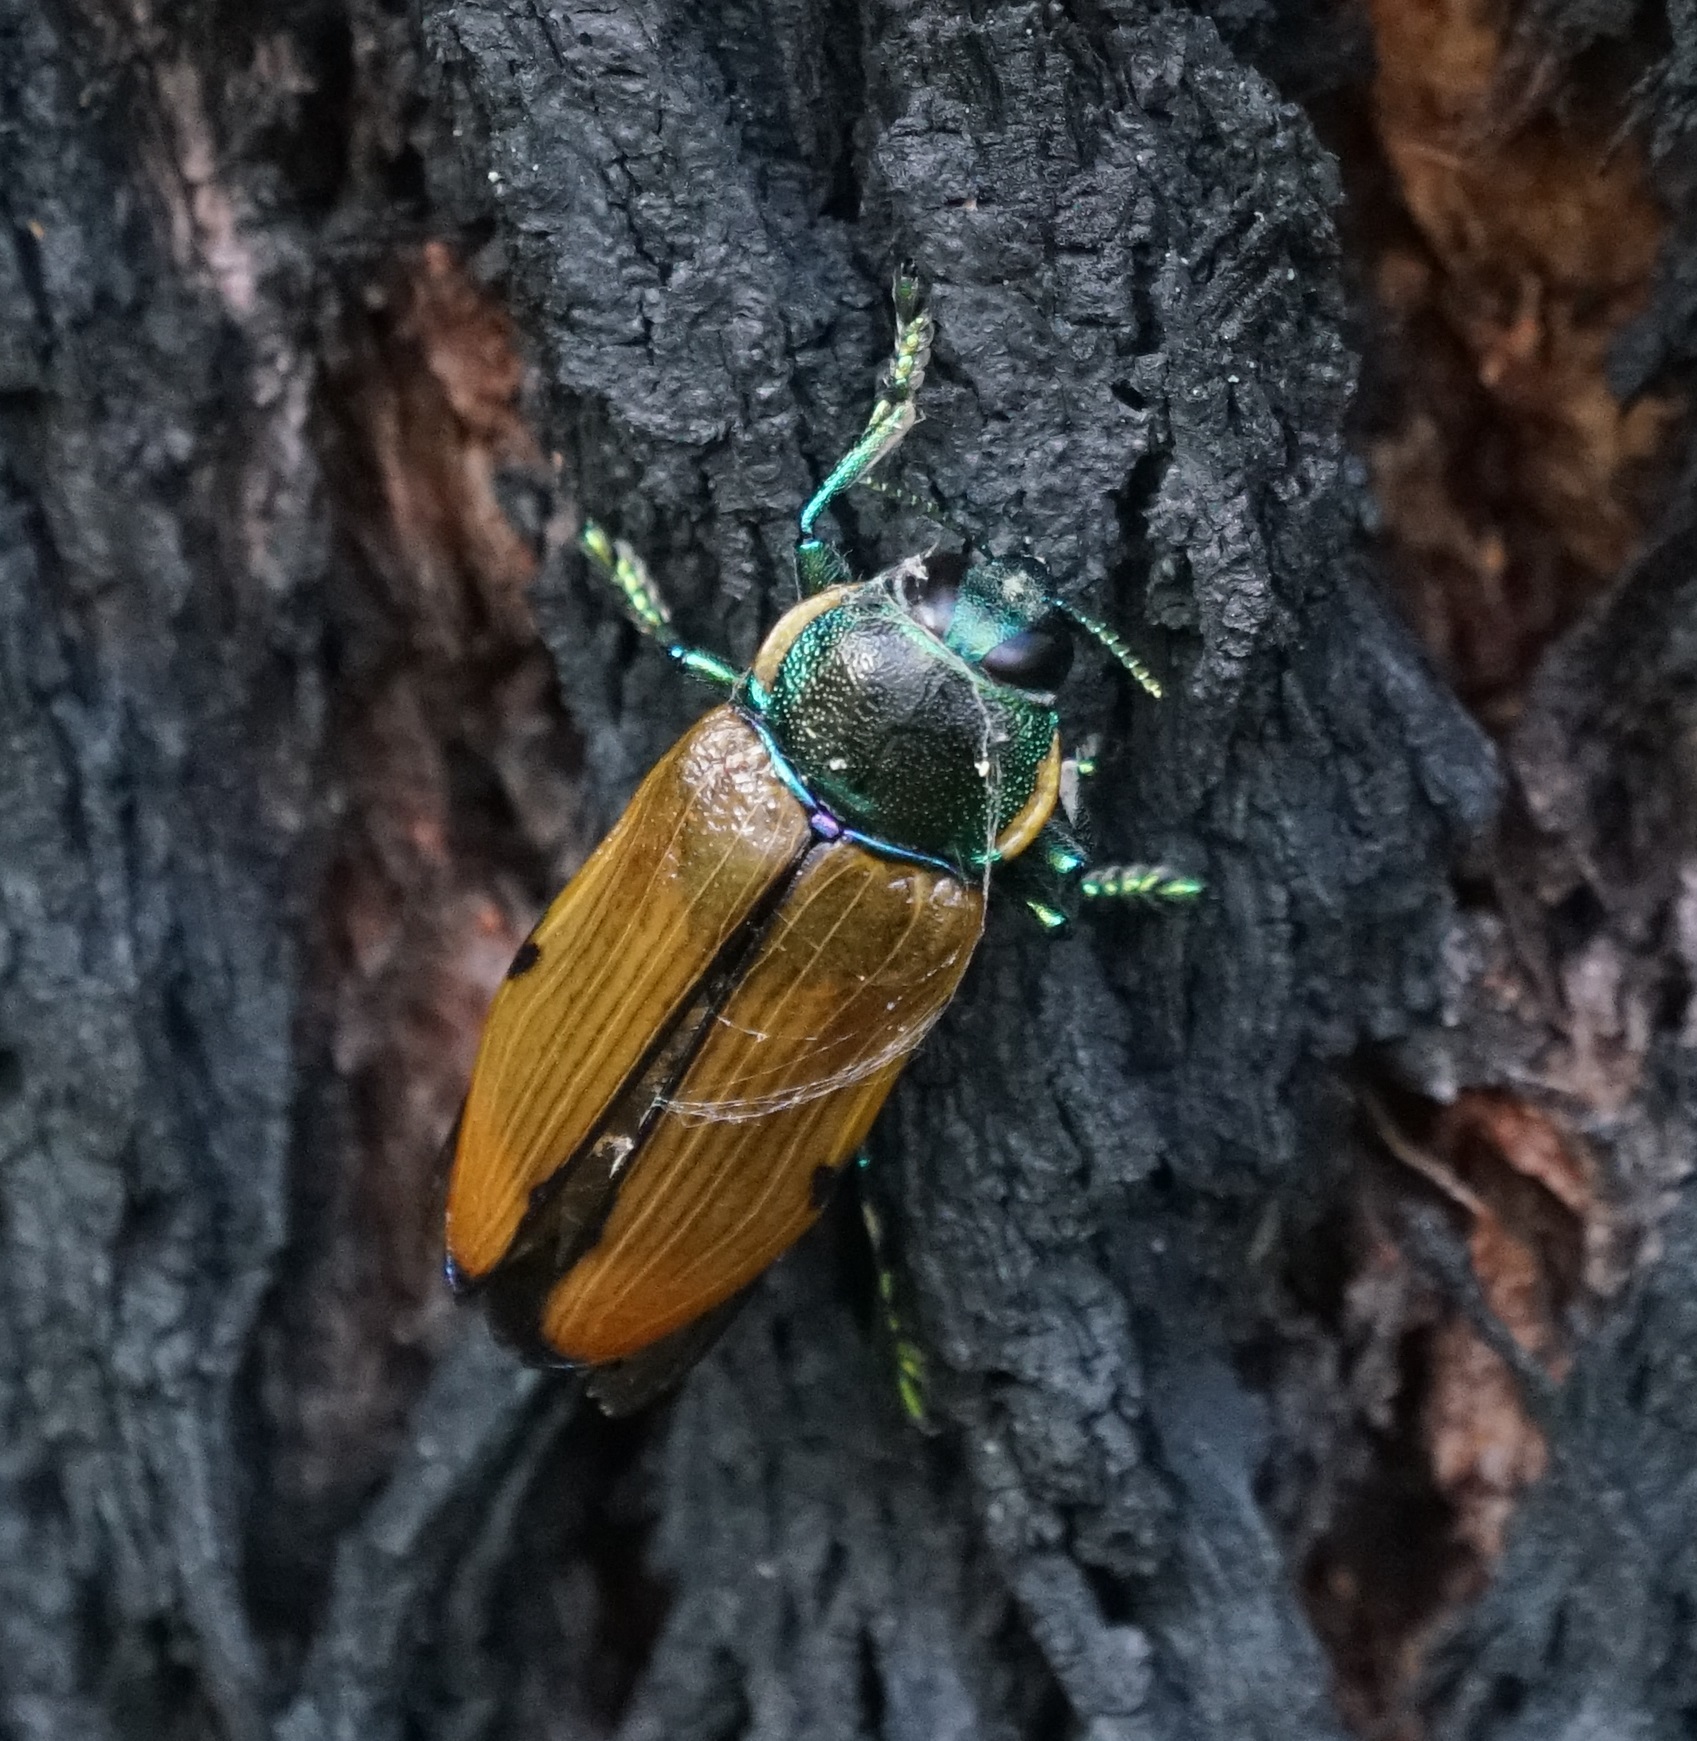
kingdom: Animalia
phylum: Arthropoda
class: Insecta
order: Coleoptera
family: Buprestidae
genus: Temognatha
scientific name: Temognatha variabilis
